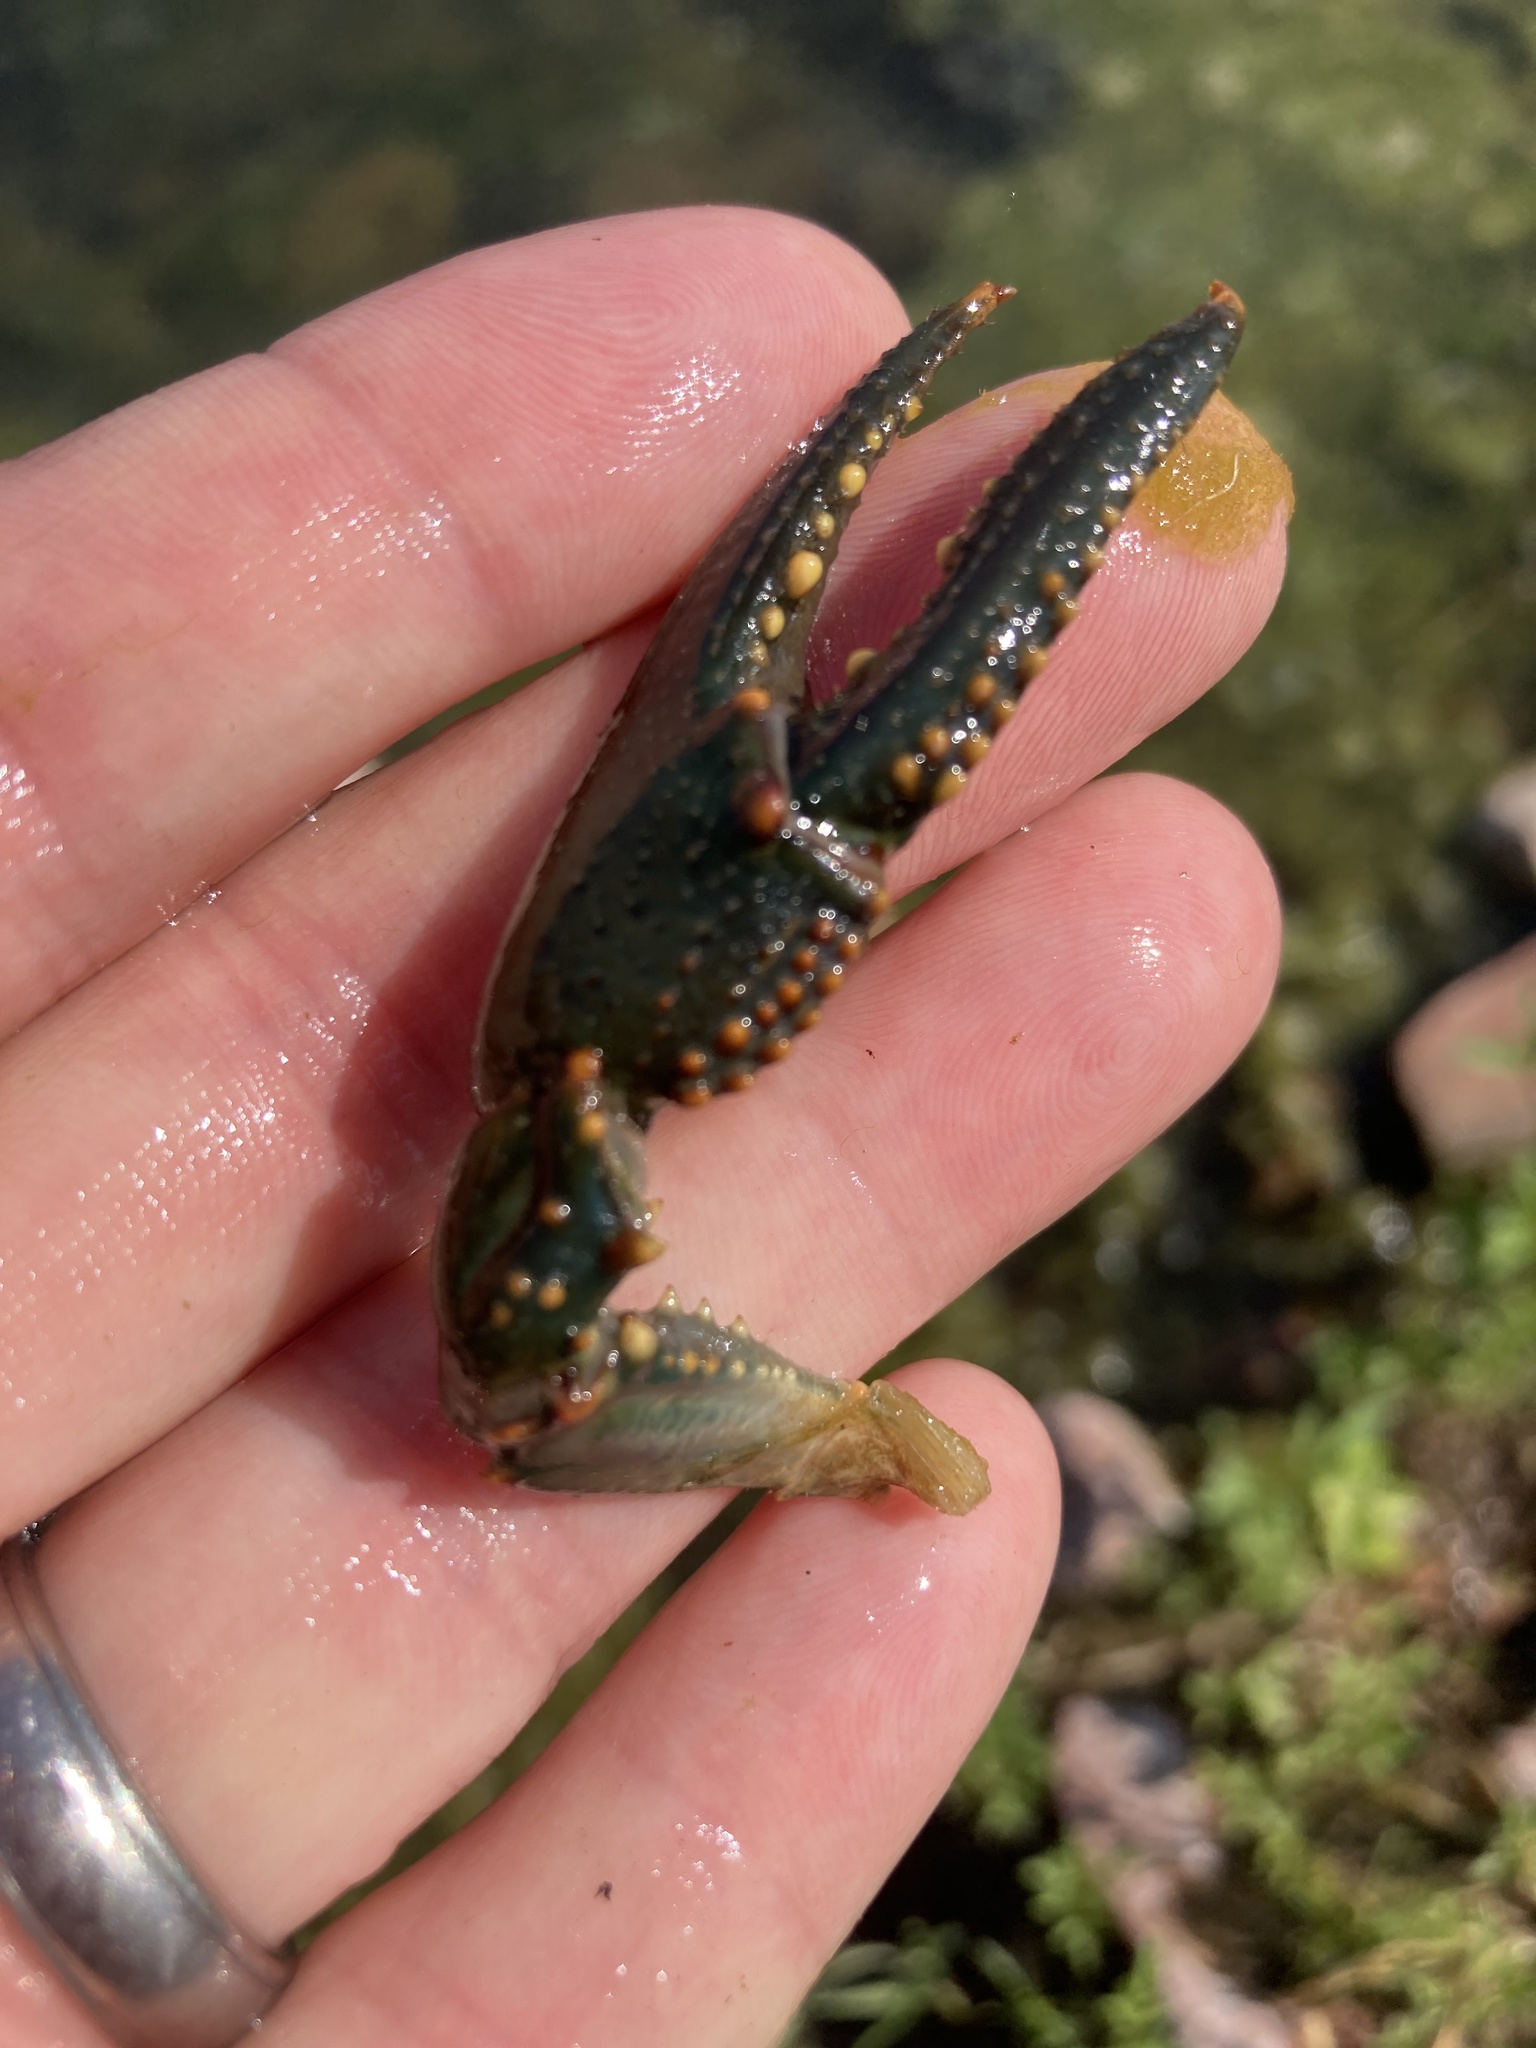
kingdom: Animalia
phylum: Arthropoda
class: Malacostraca
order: Decapoda
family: Cambaridae
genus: Faxonius
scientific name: Faxonius virilis
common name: Virile crayfish
